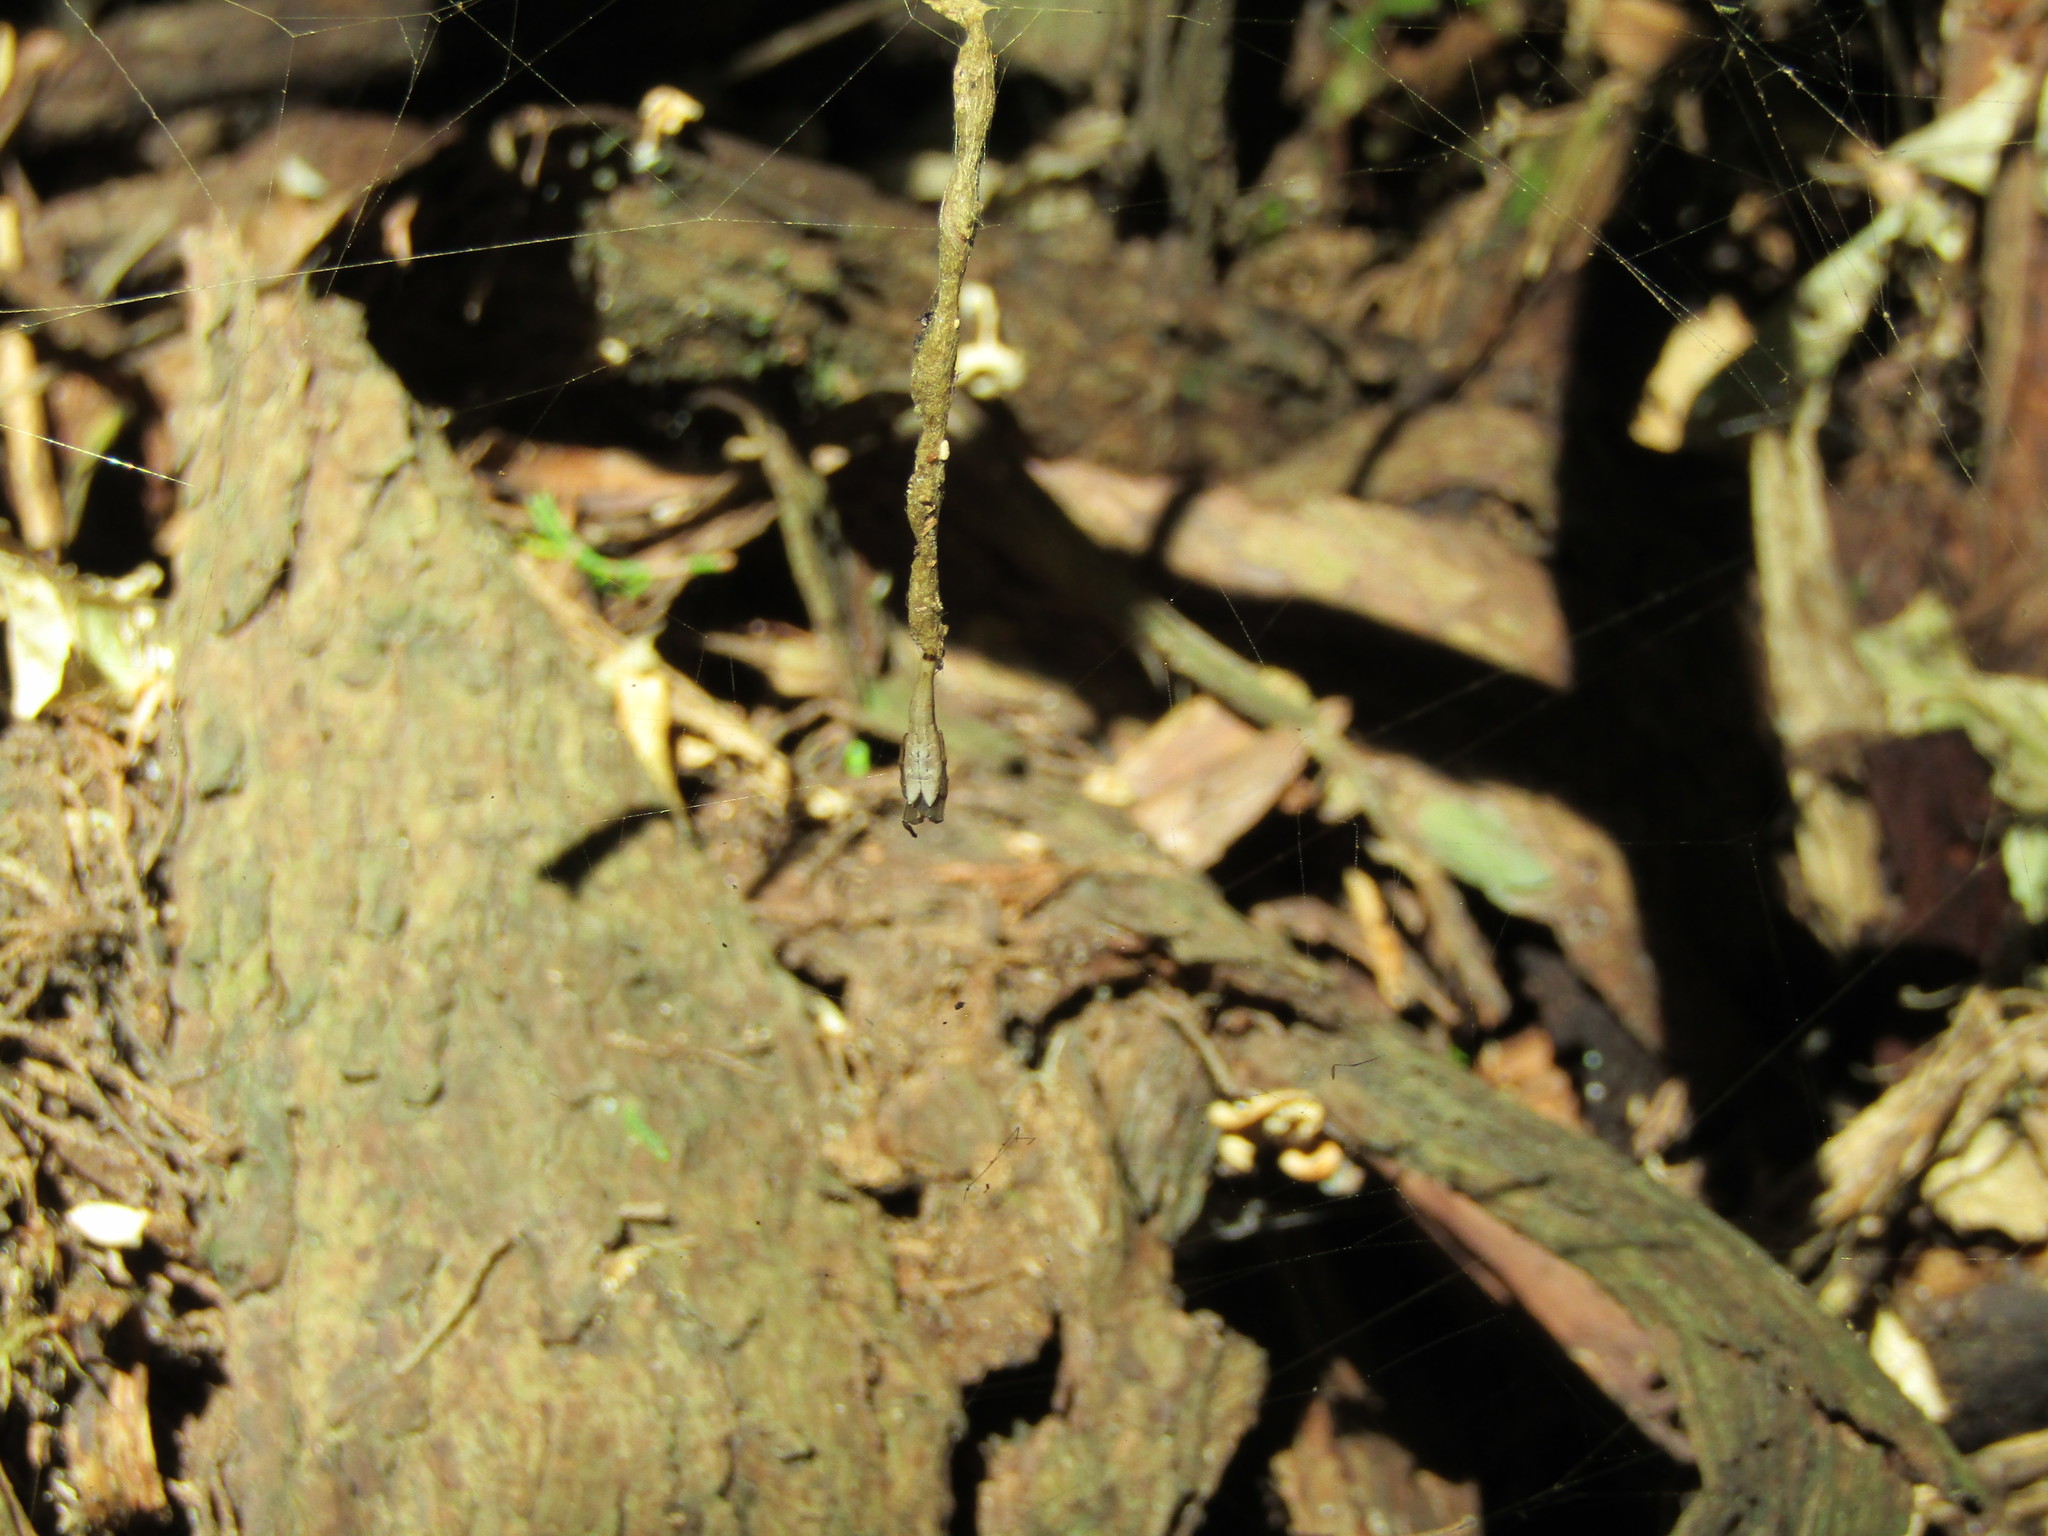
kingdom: Animalia
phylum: Arthropoda
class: Arachnida
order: Araneae
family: Araneidae
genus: Arachnura
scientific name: Arachnura feredayi
